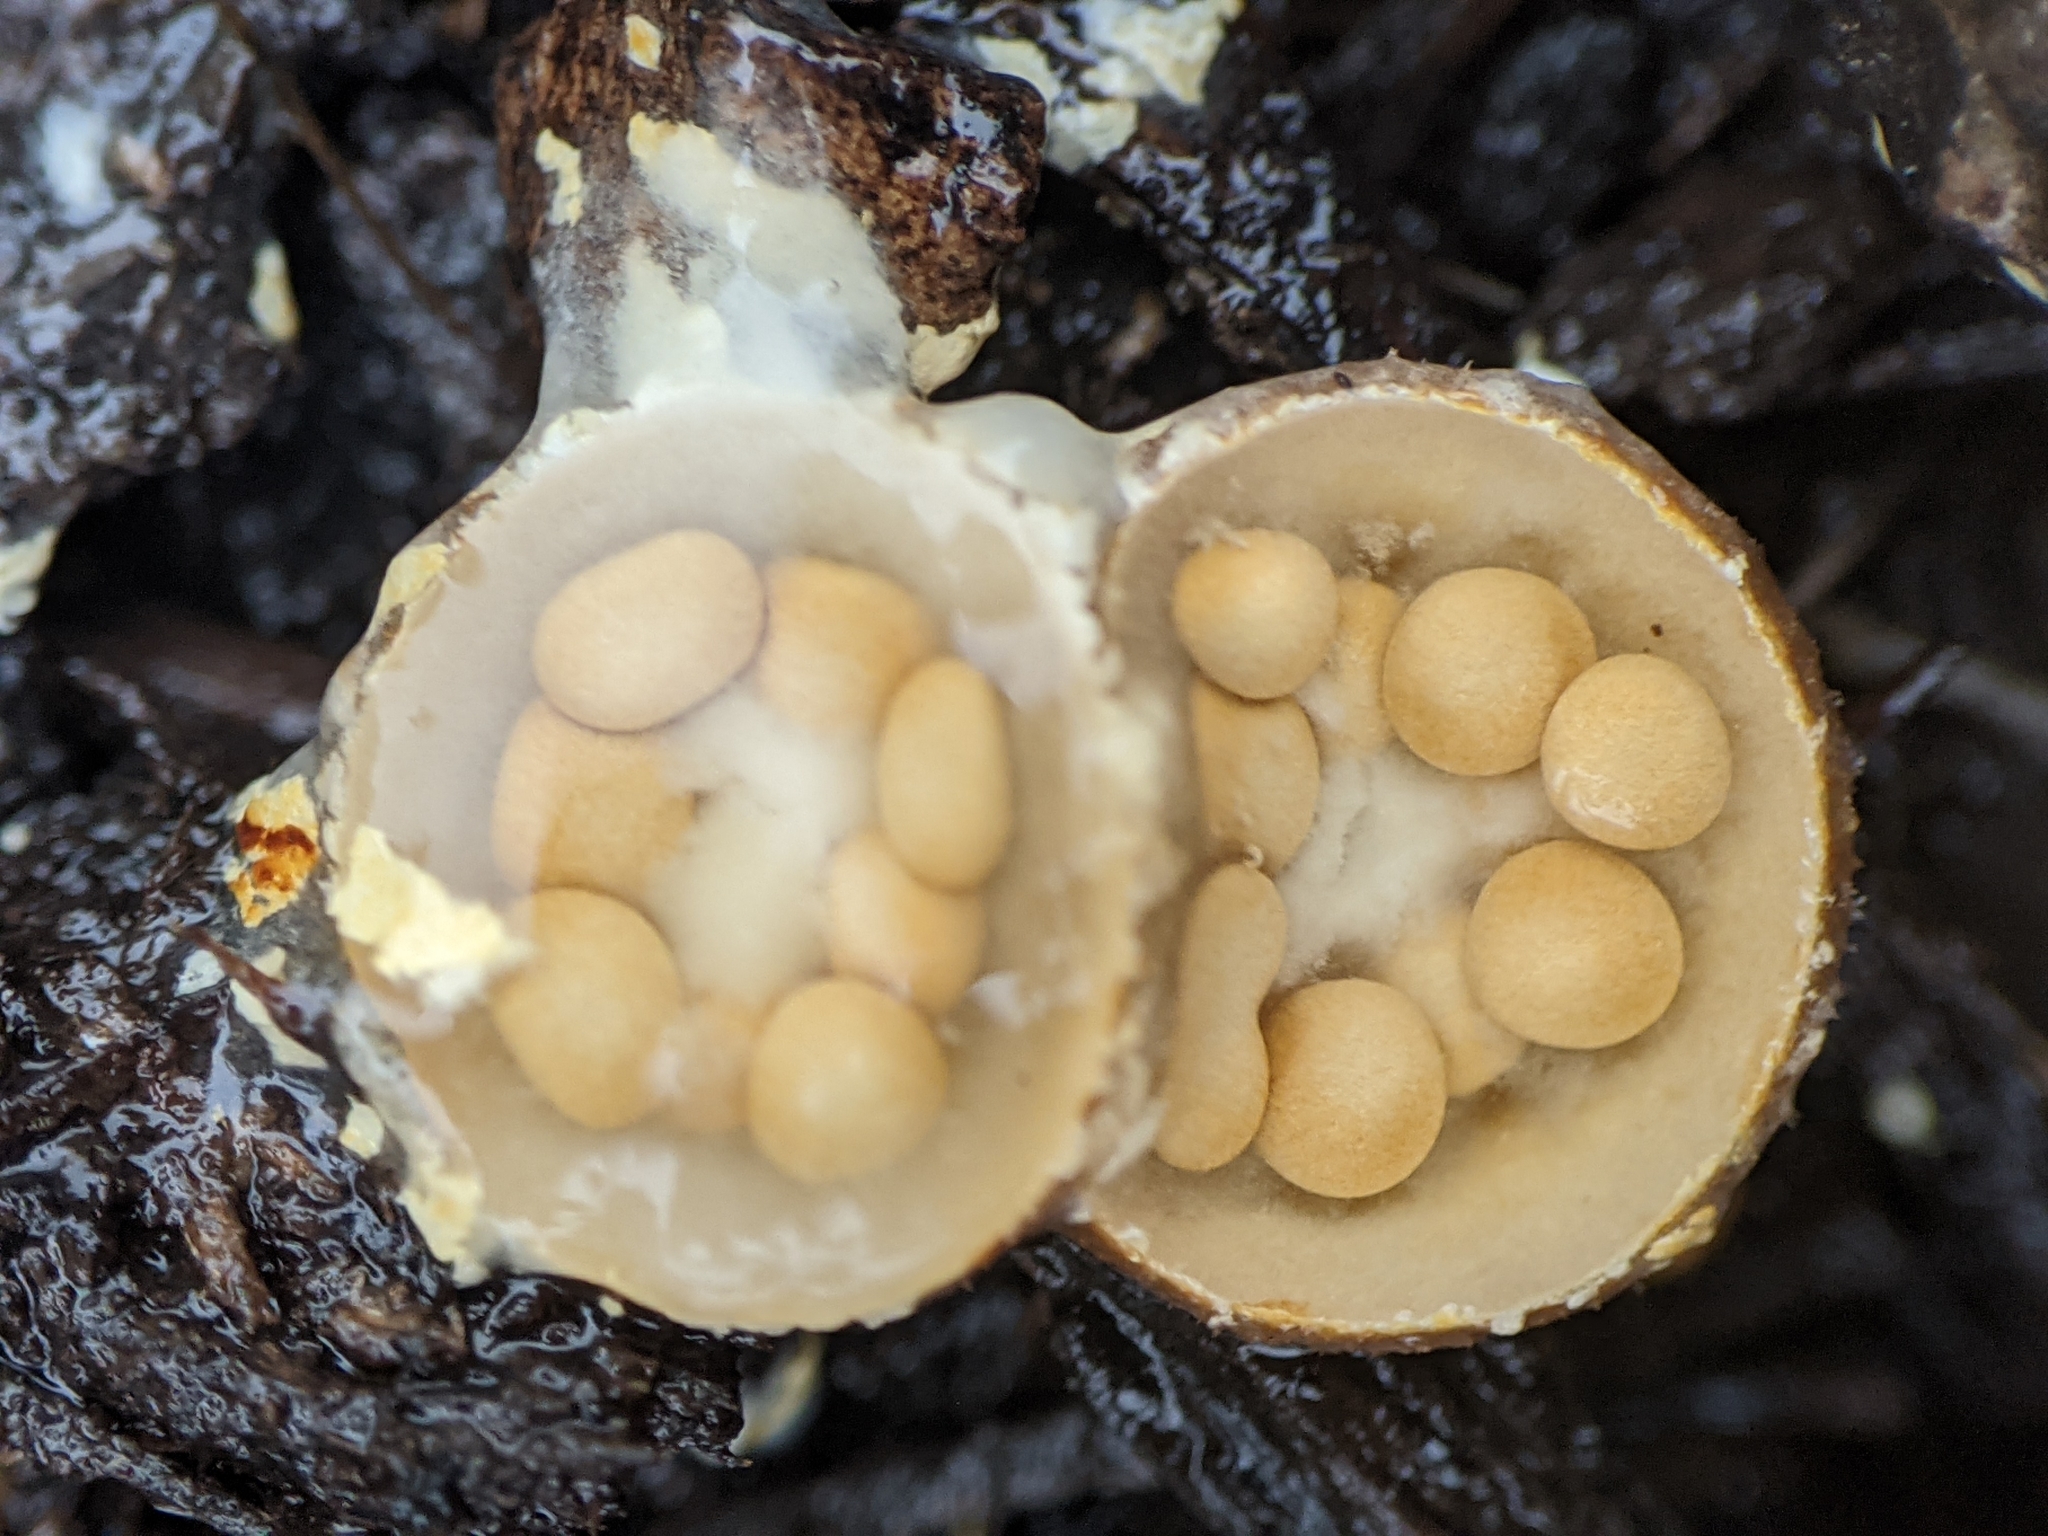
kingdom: Fungi
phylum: Basidiomycota
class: Agaricomycetes
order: Agaricales
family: Nidulariaceae
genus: Crucibulum
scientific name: Crucibulum laeve
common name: Common bird's nest
